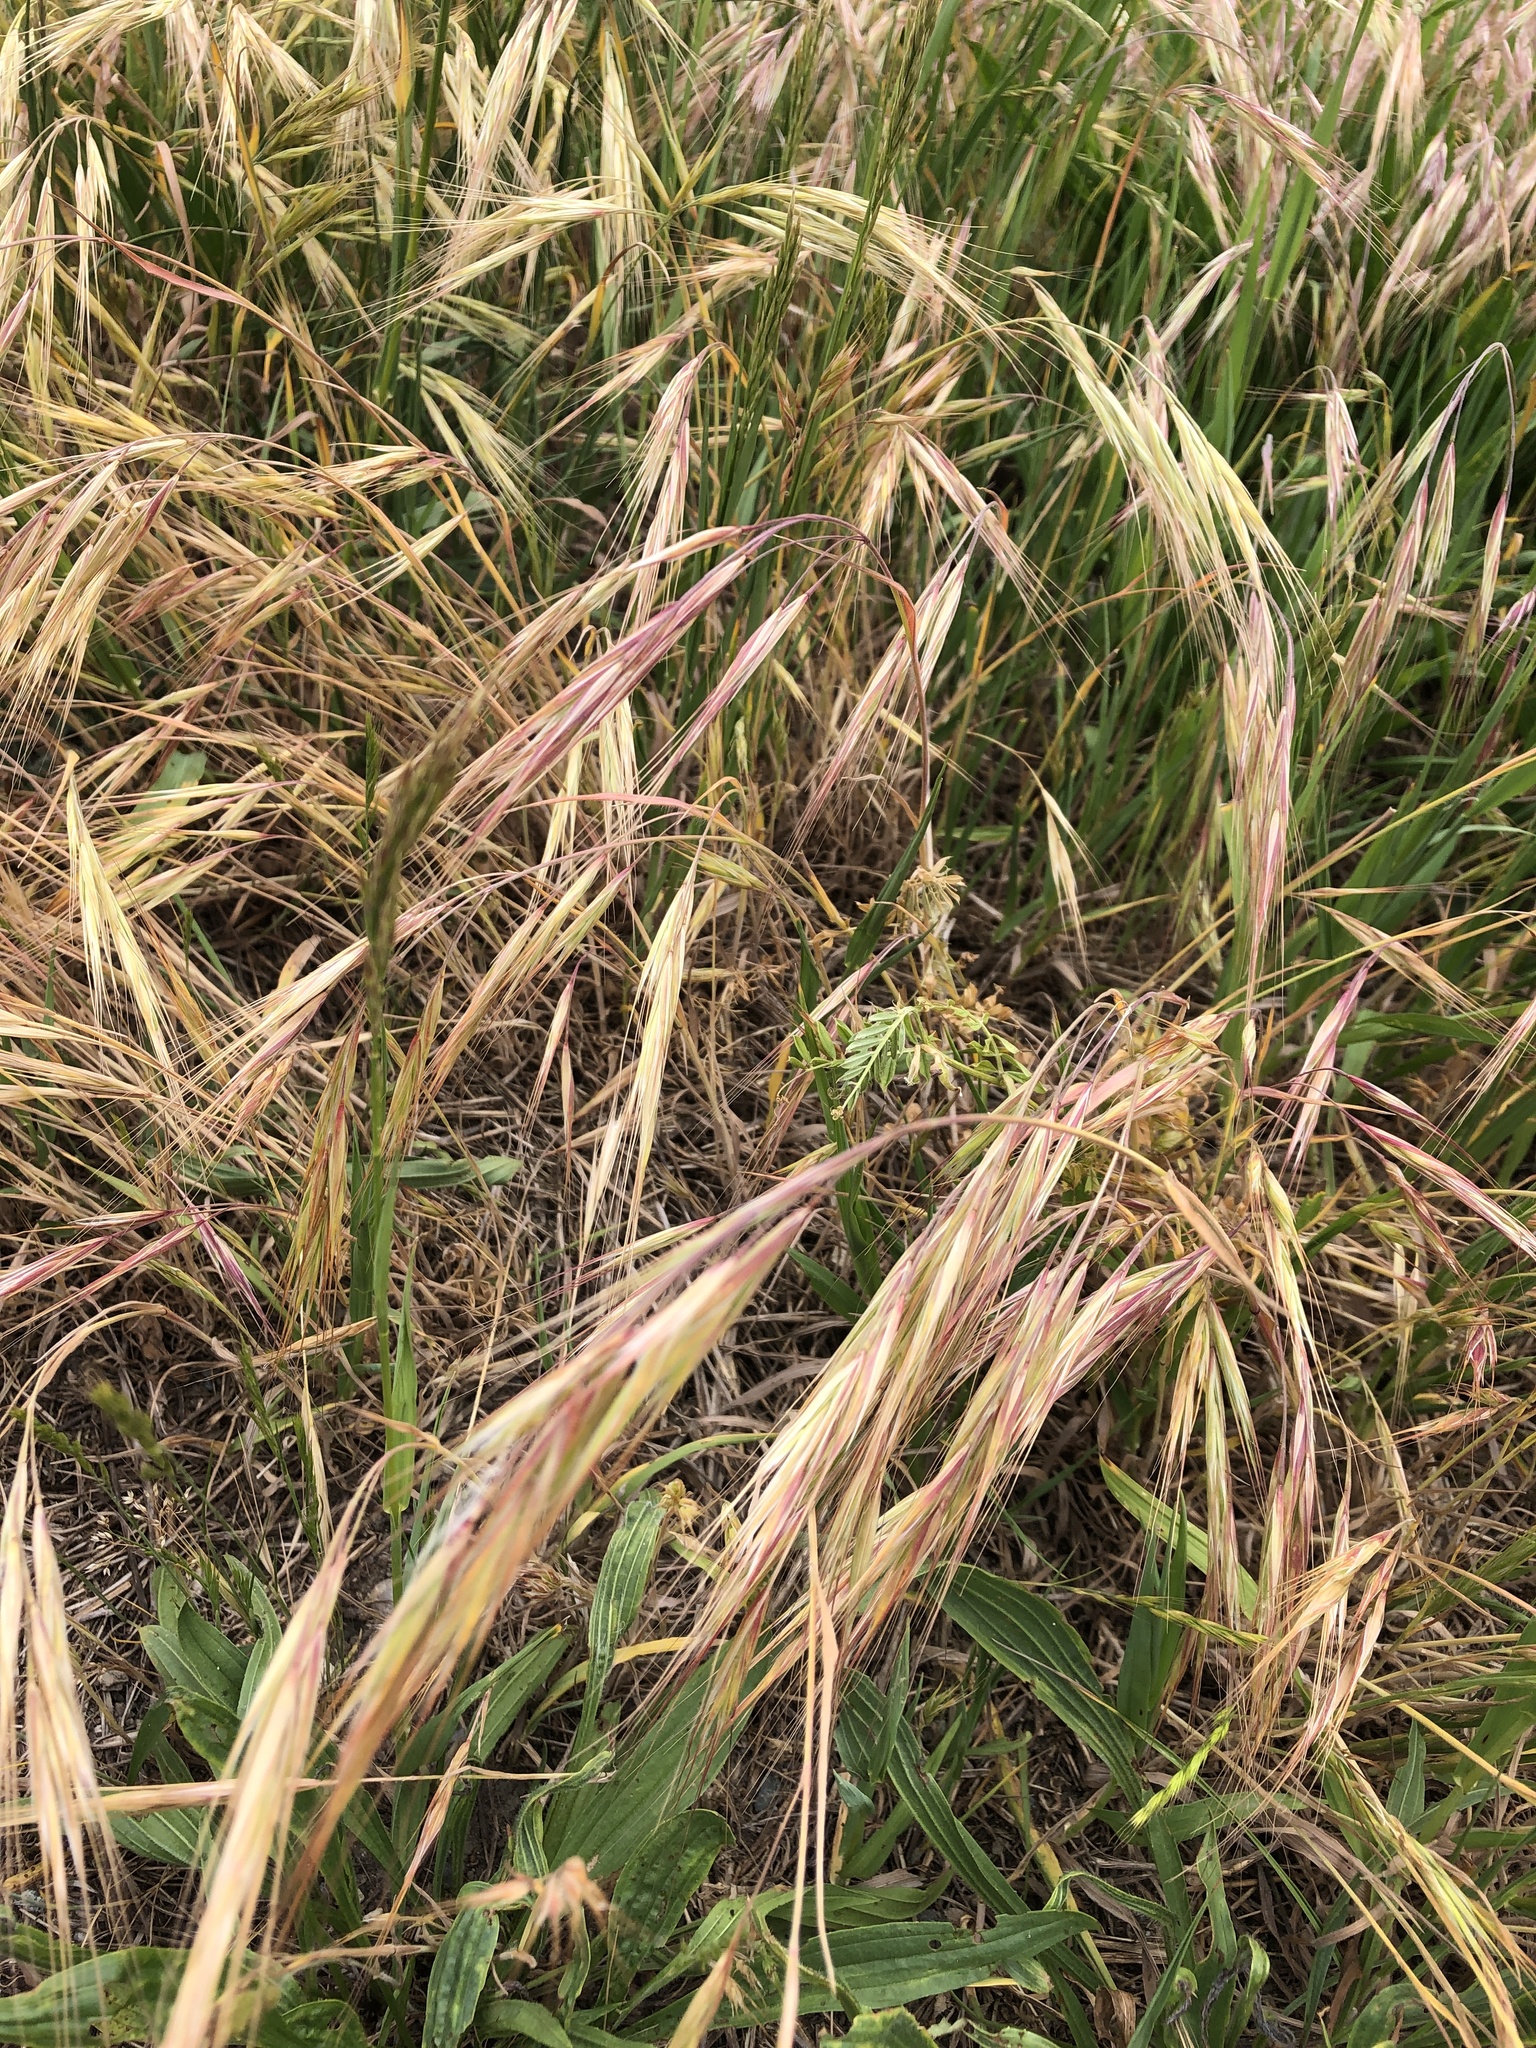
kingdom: Plantae
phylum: Tracheophyta
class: Liliopsida
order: Poales
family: Poaceae
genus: Bromus
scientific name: Bromus tectorum
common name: Cheatgrass
